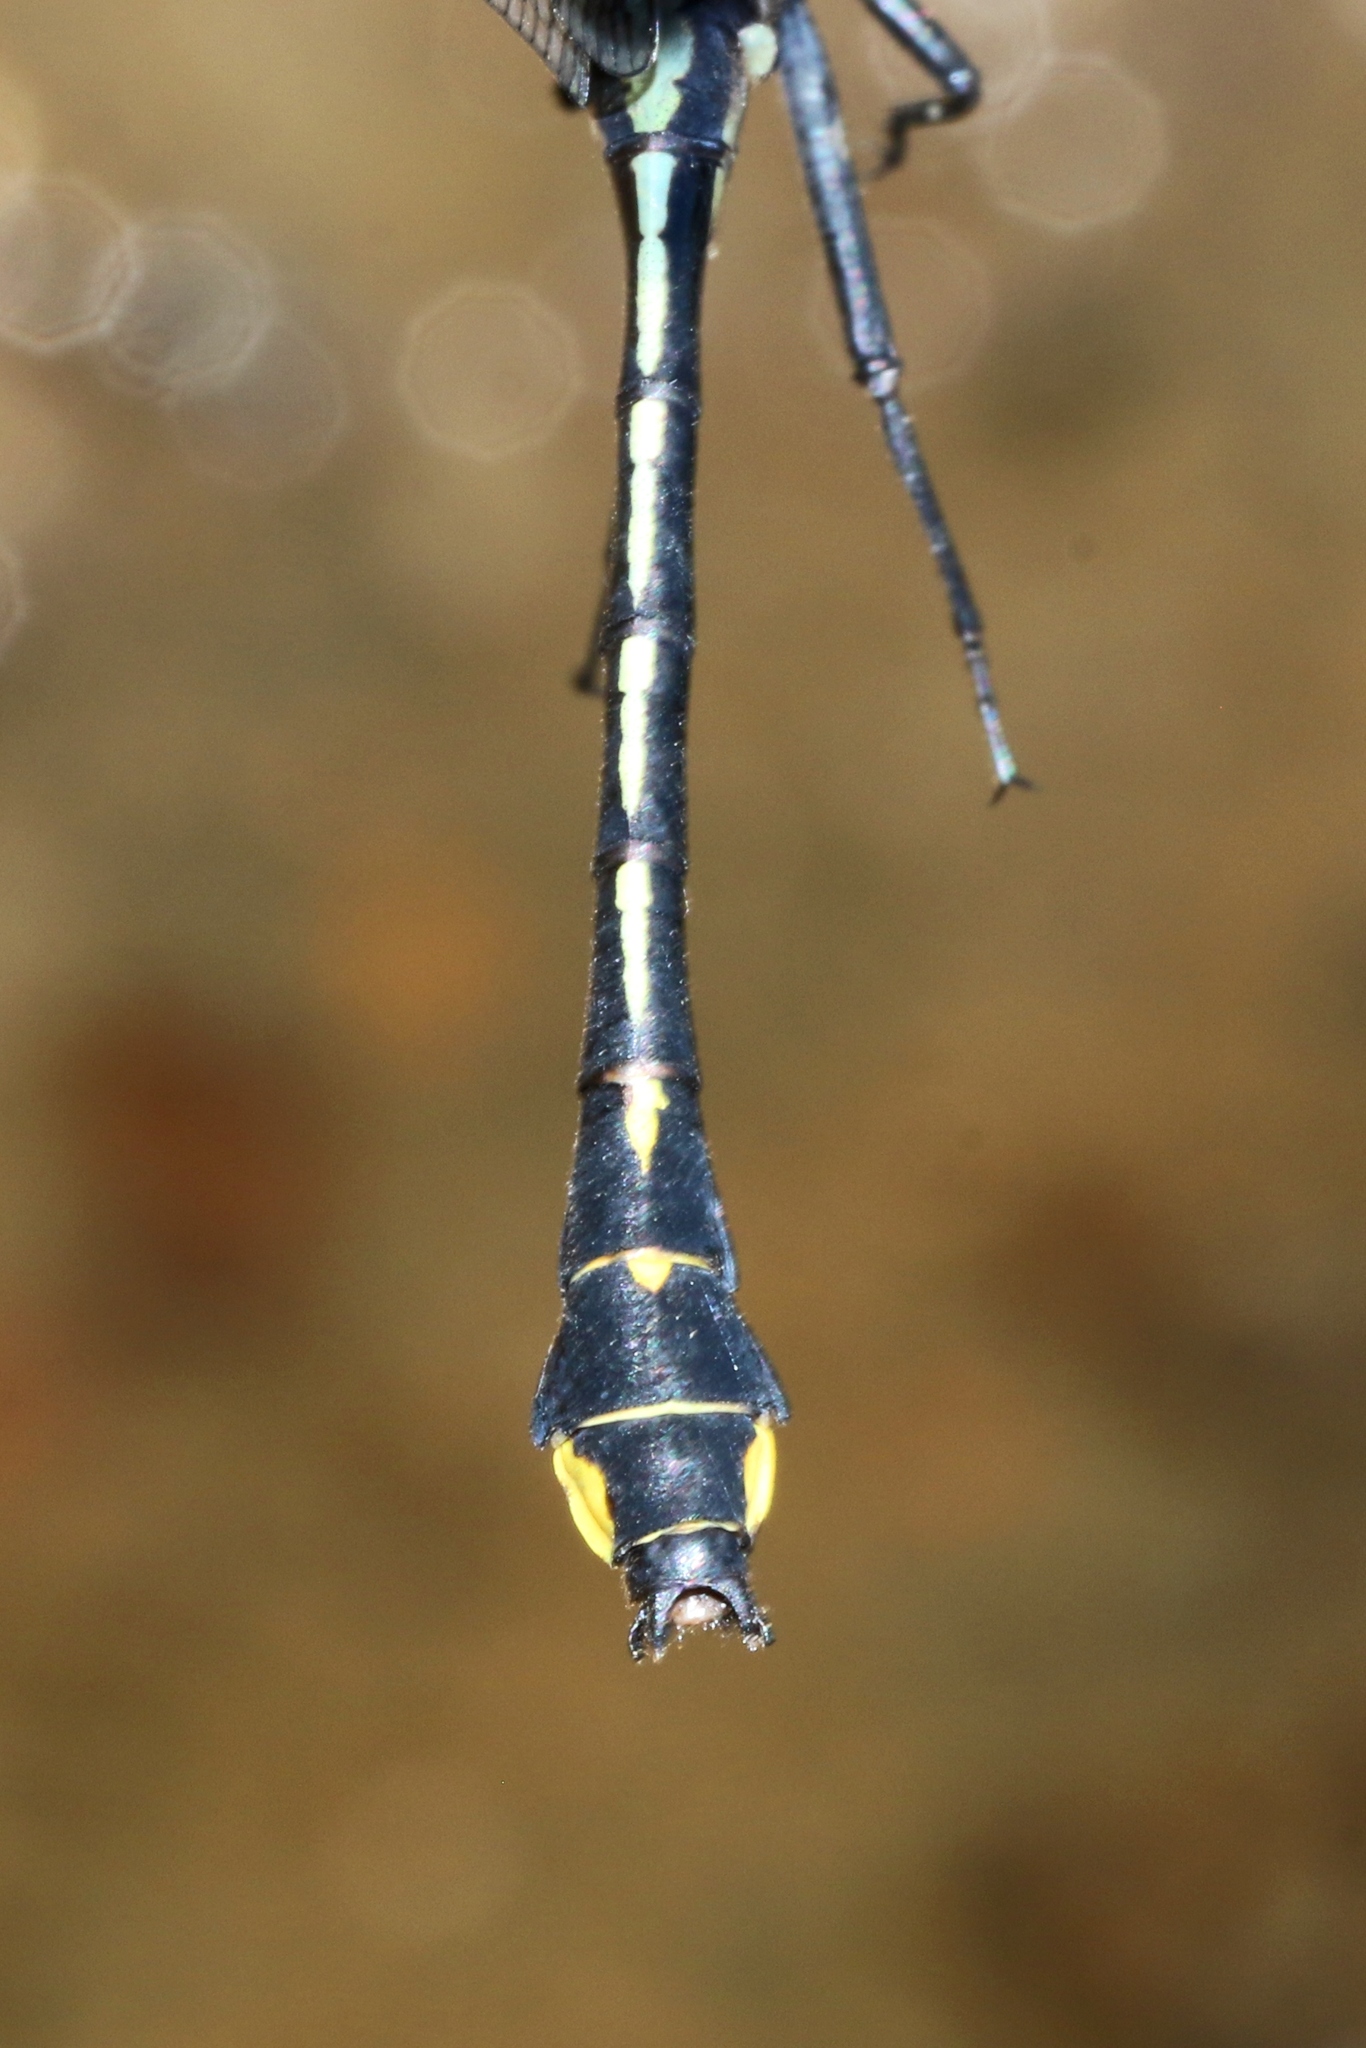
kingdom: Animalia
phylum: Arthropoda
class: Insecta
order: Odonata
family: Gomphidae
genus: Gomphurus
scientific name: Gomphurus fraternus
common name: Midland clubtail
